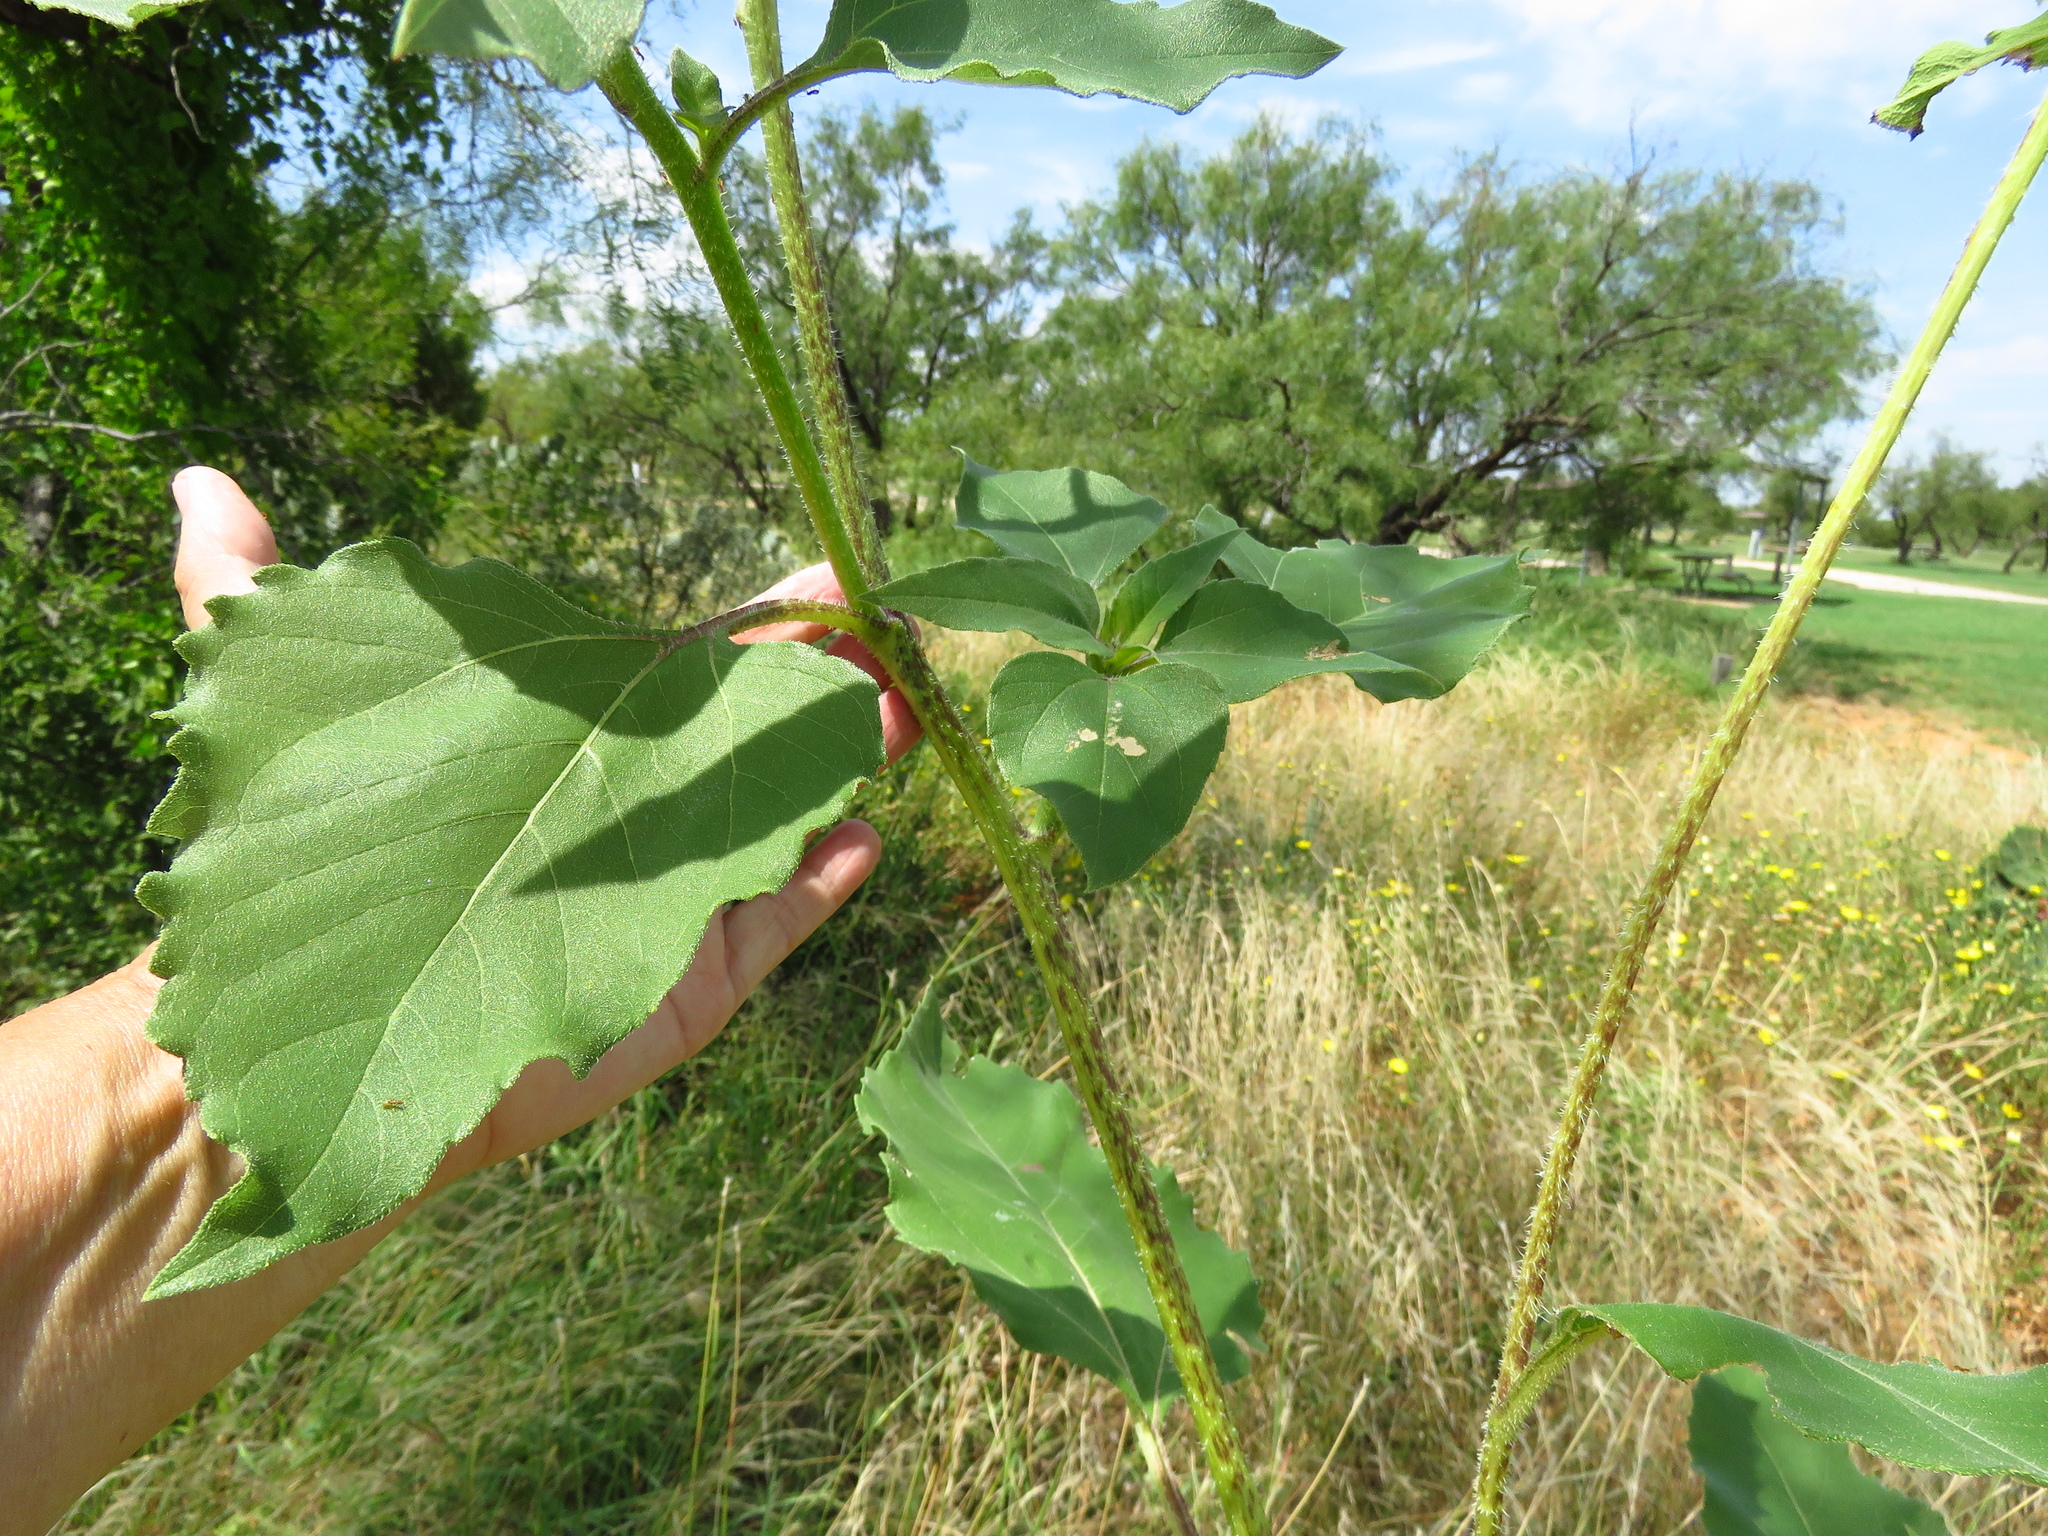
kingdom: Plantae
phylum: Tracheophyta
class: Magnoliopsida
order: Asterales
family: Asteraceae
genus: Helianthus
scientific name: Helianthus annuus
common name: Sunflower
